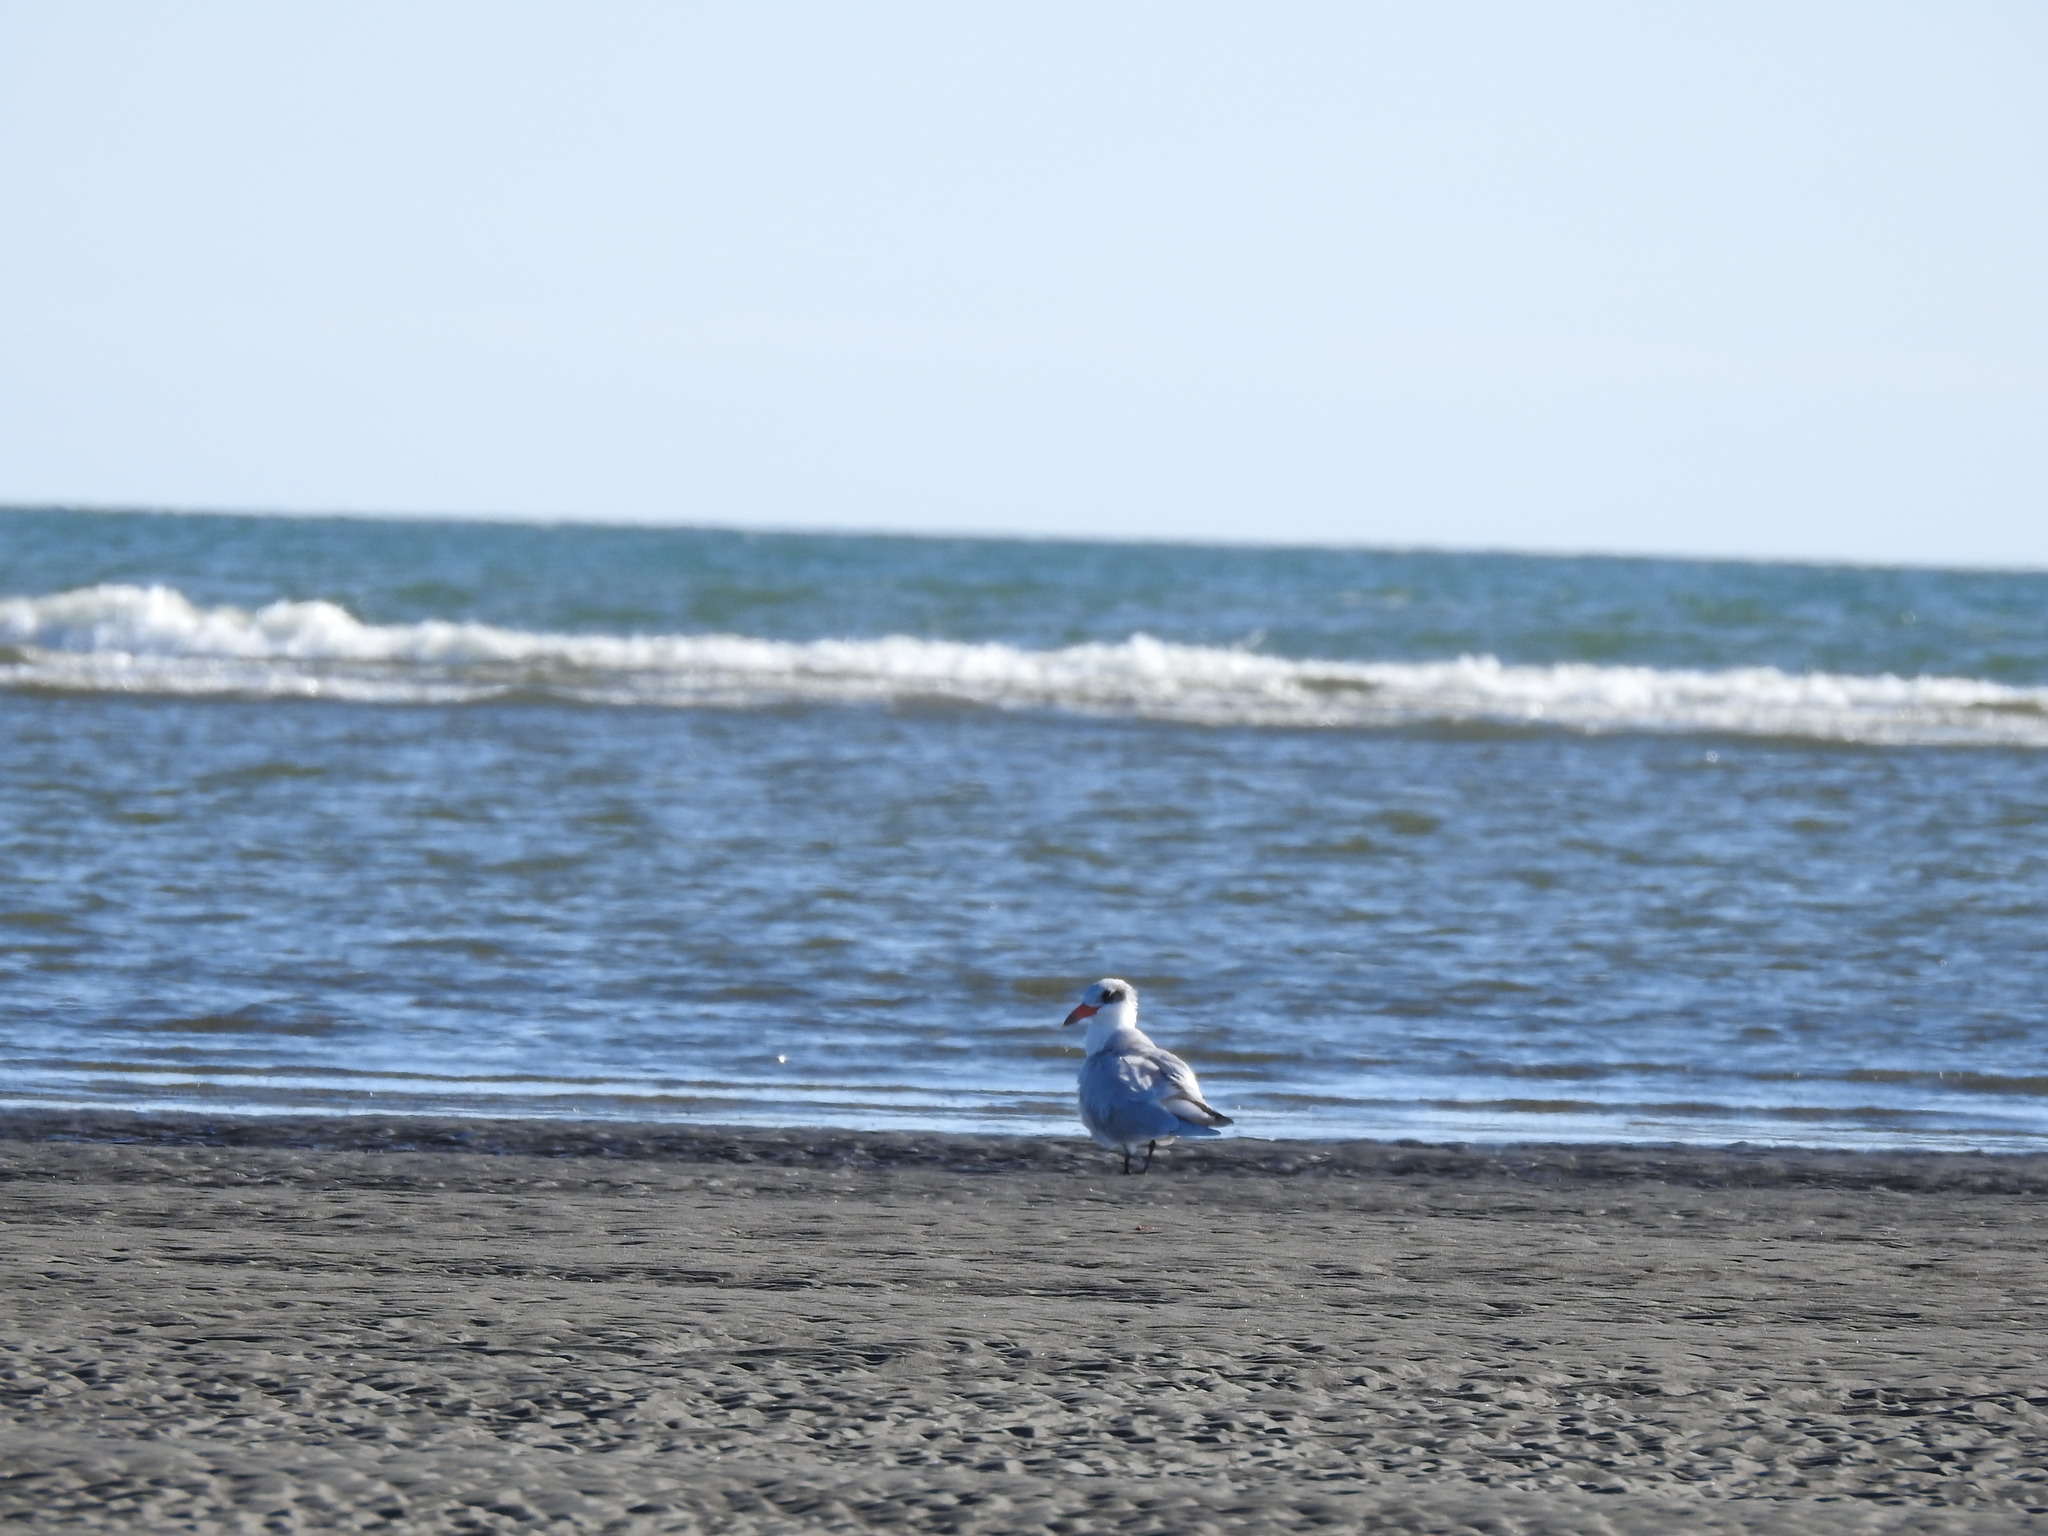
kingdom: Animalia
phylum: Chordata
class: Aves
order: Charadriiformes
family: Laridae
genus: Hydroprogne
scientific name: Hydroprogne caspia
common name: Caspian tern
